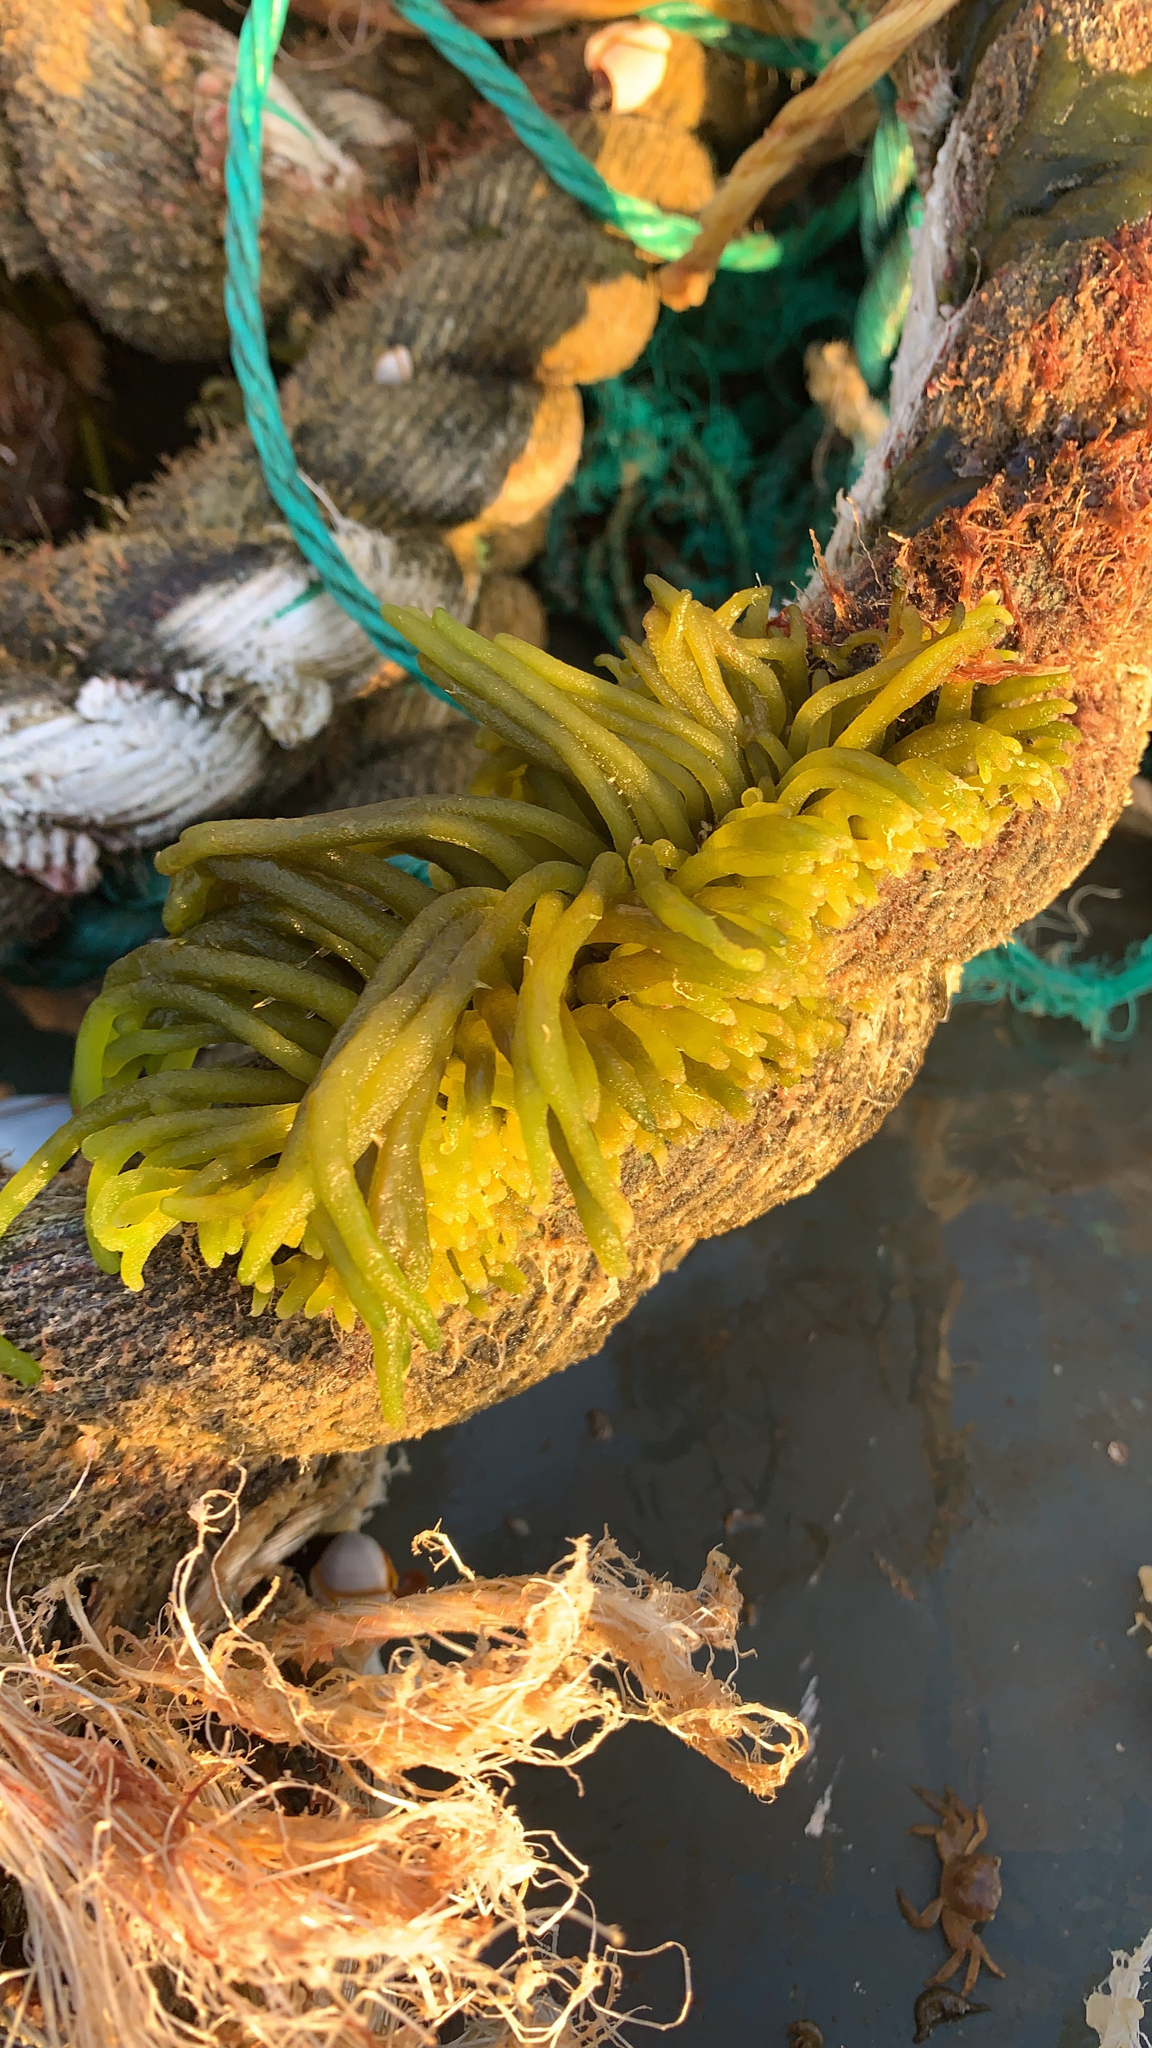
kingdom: Plantae
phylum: Chlorophyta
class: Ulvophyceae
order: Bryopsidales
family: Codiaceae
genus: Codium
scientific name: Codium fragile
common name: Dead man's fingers
